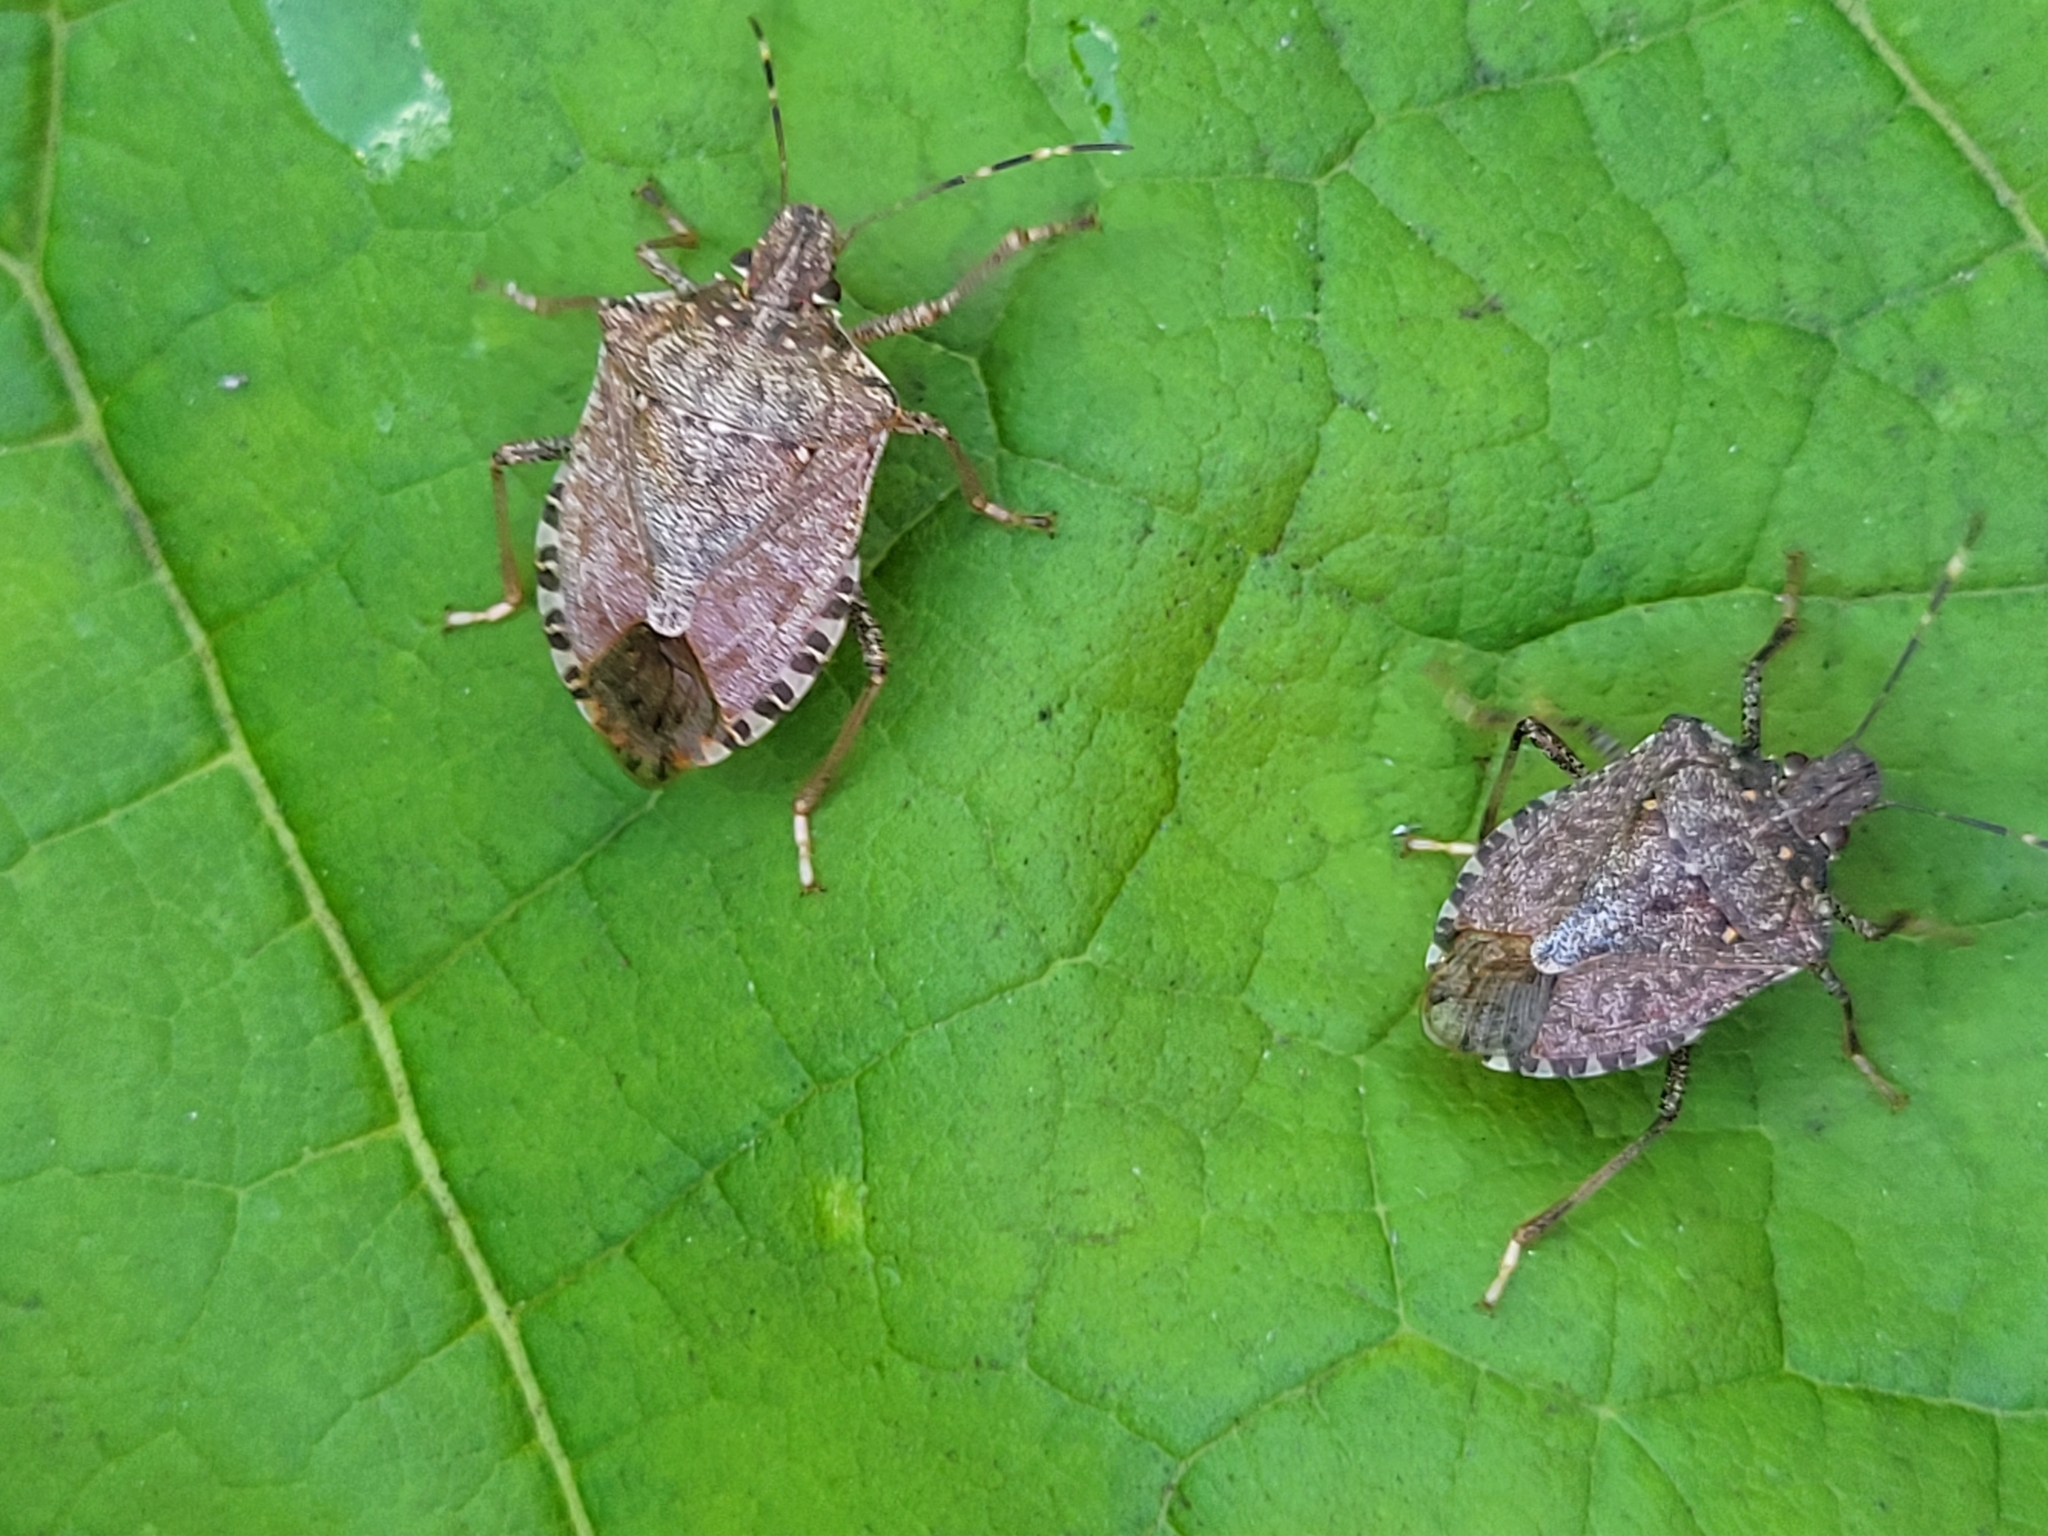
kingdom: Animalia
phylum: Arthropoda
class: Insecta
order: Hemiptera
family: Pentatomidae
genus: Halyomorpha
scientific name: Halyomorpha halys
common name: Brown marmorated stink bug
